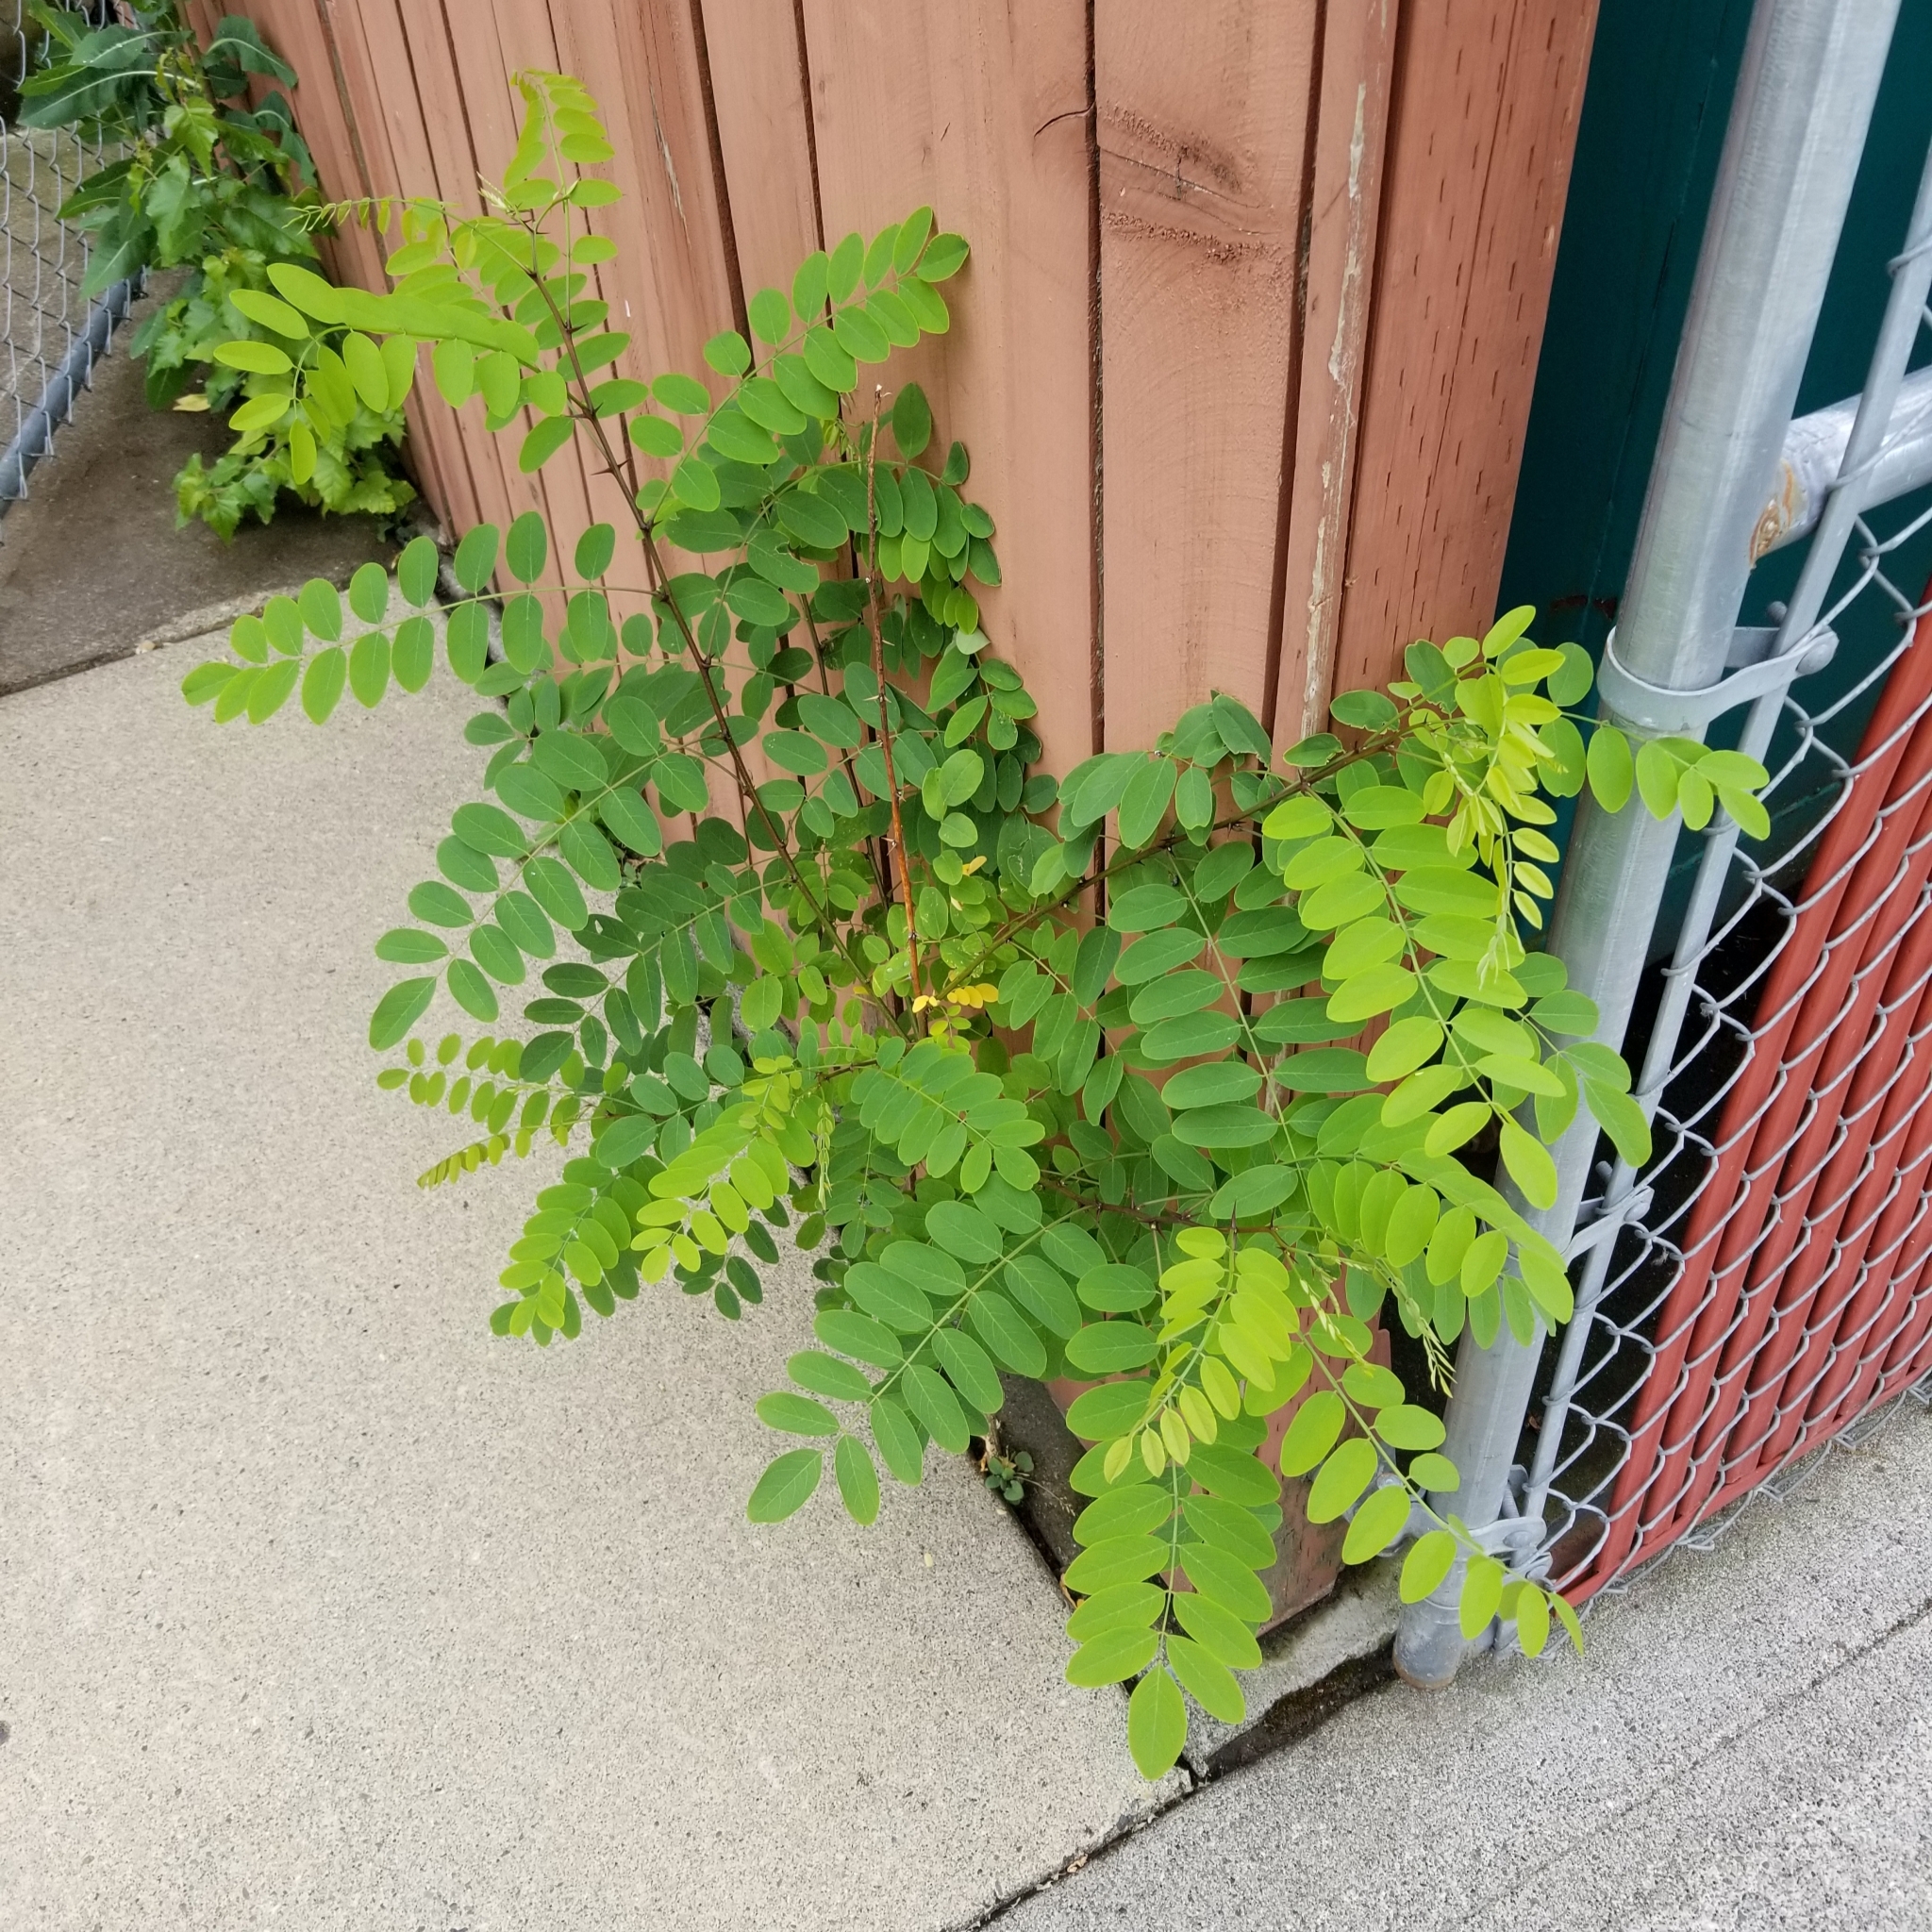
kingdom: Plantae
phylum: Tracheophyta
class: Magnoliopsida
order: Fabales
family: Fabaceae
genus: Robinia
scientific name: Robinia pseudoacacia
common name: Black locust
